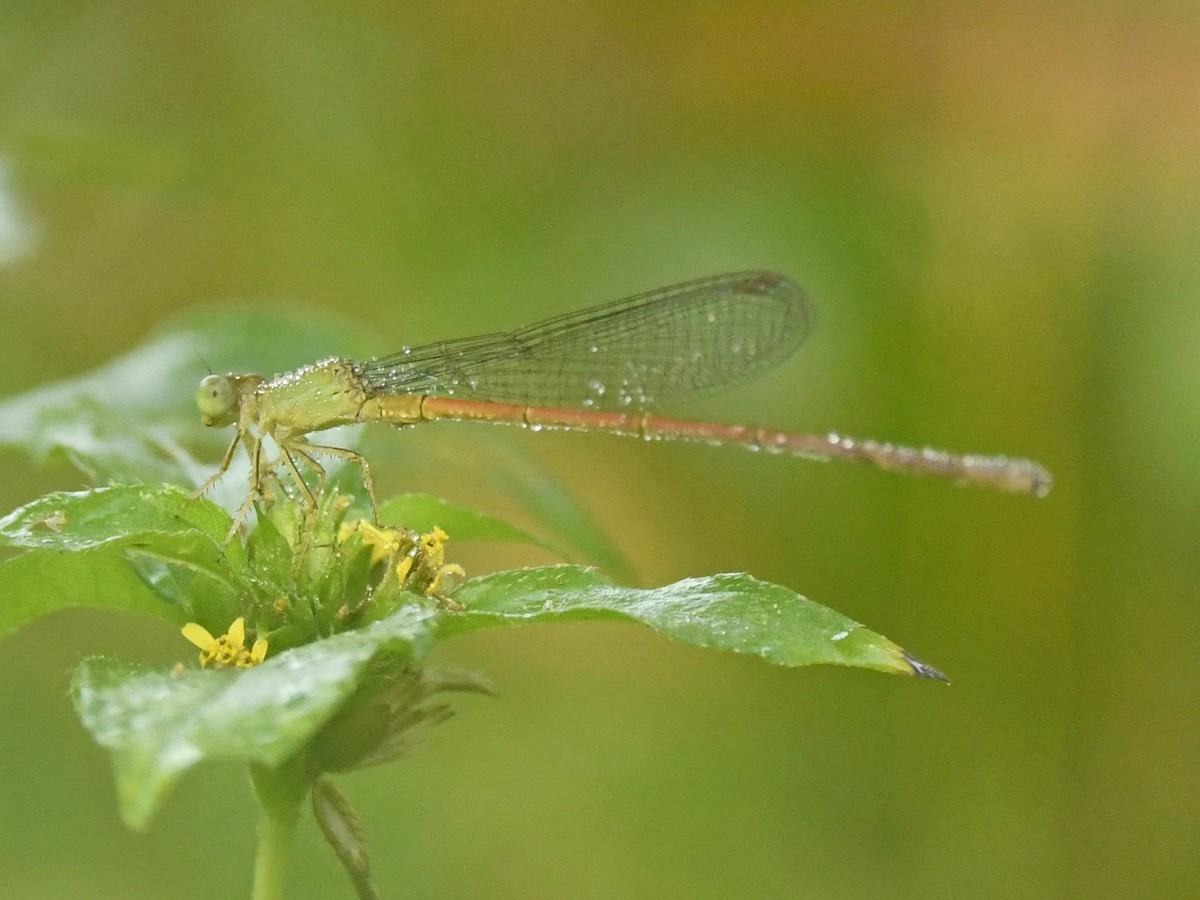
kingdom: Animalia
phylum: Arthropoda
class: Insecta
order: Odonata
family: Coenagrionidae
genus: Ceriagrion
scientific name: Ceriagrion coromandelianum
